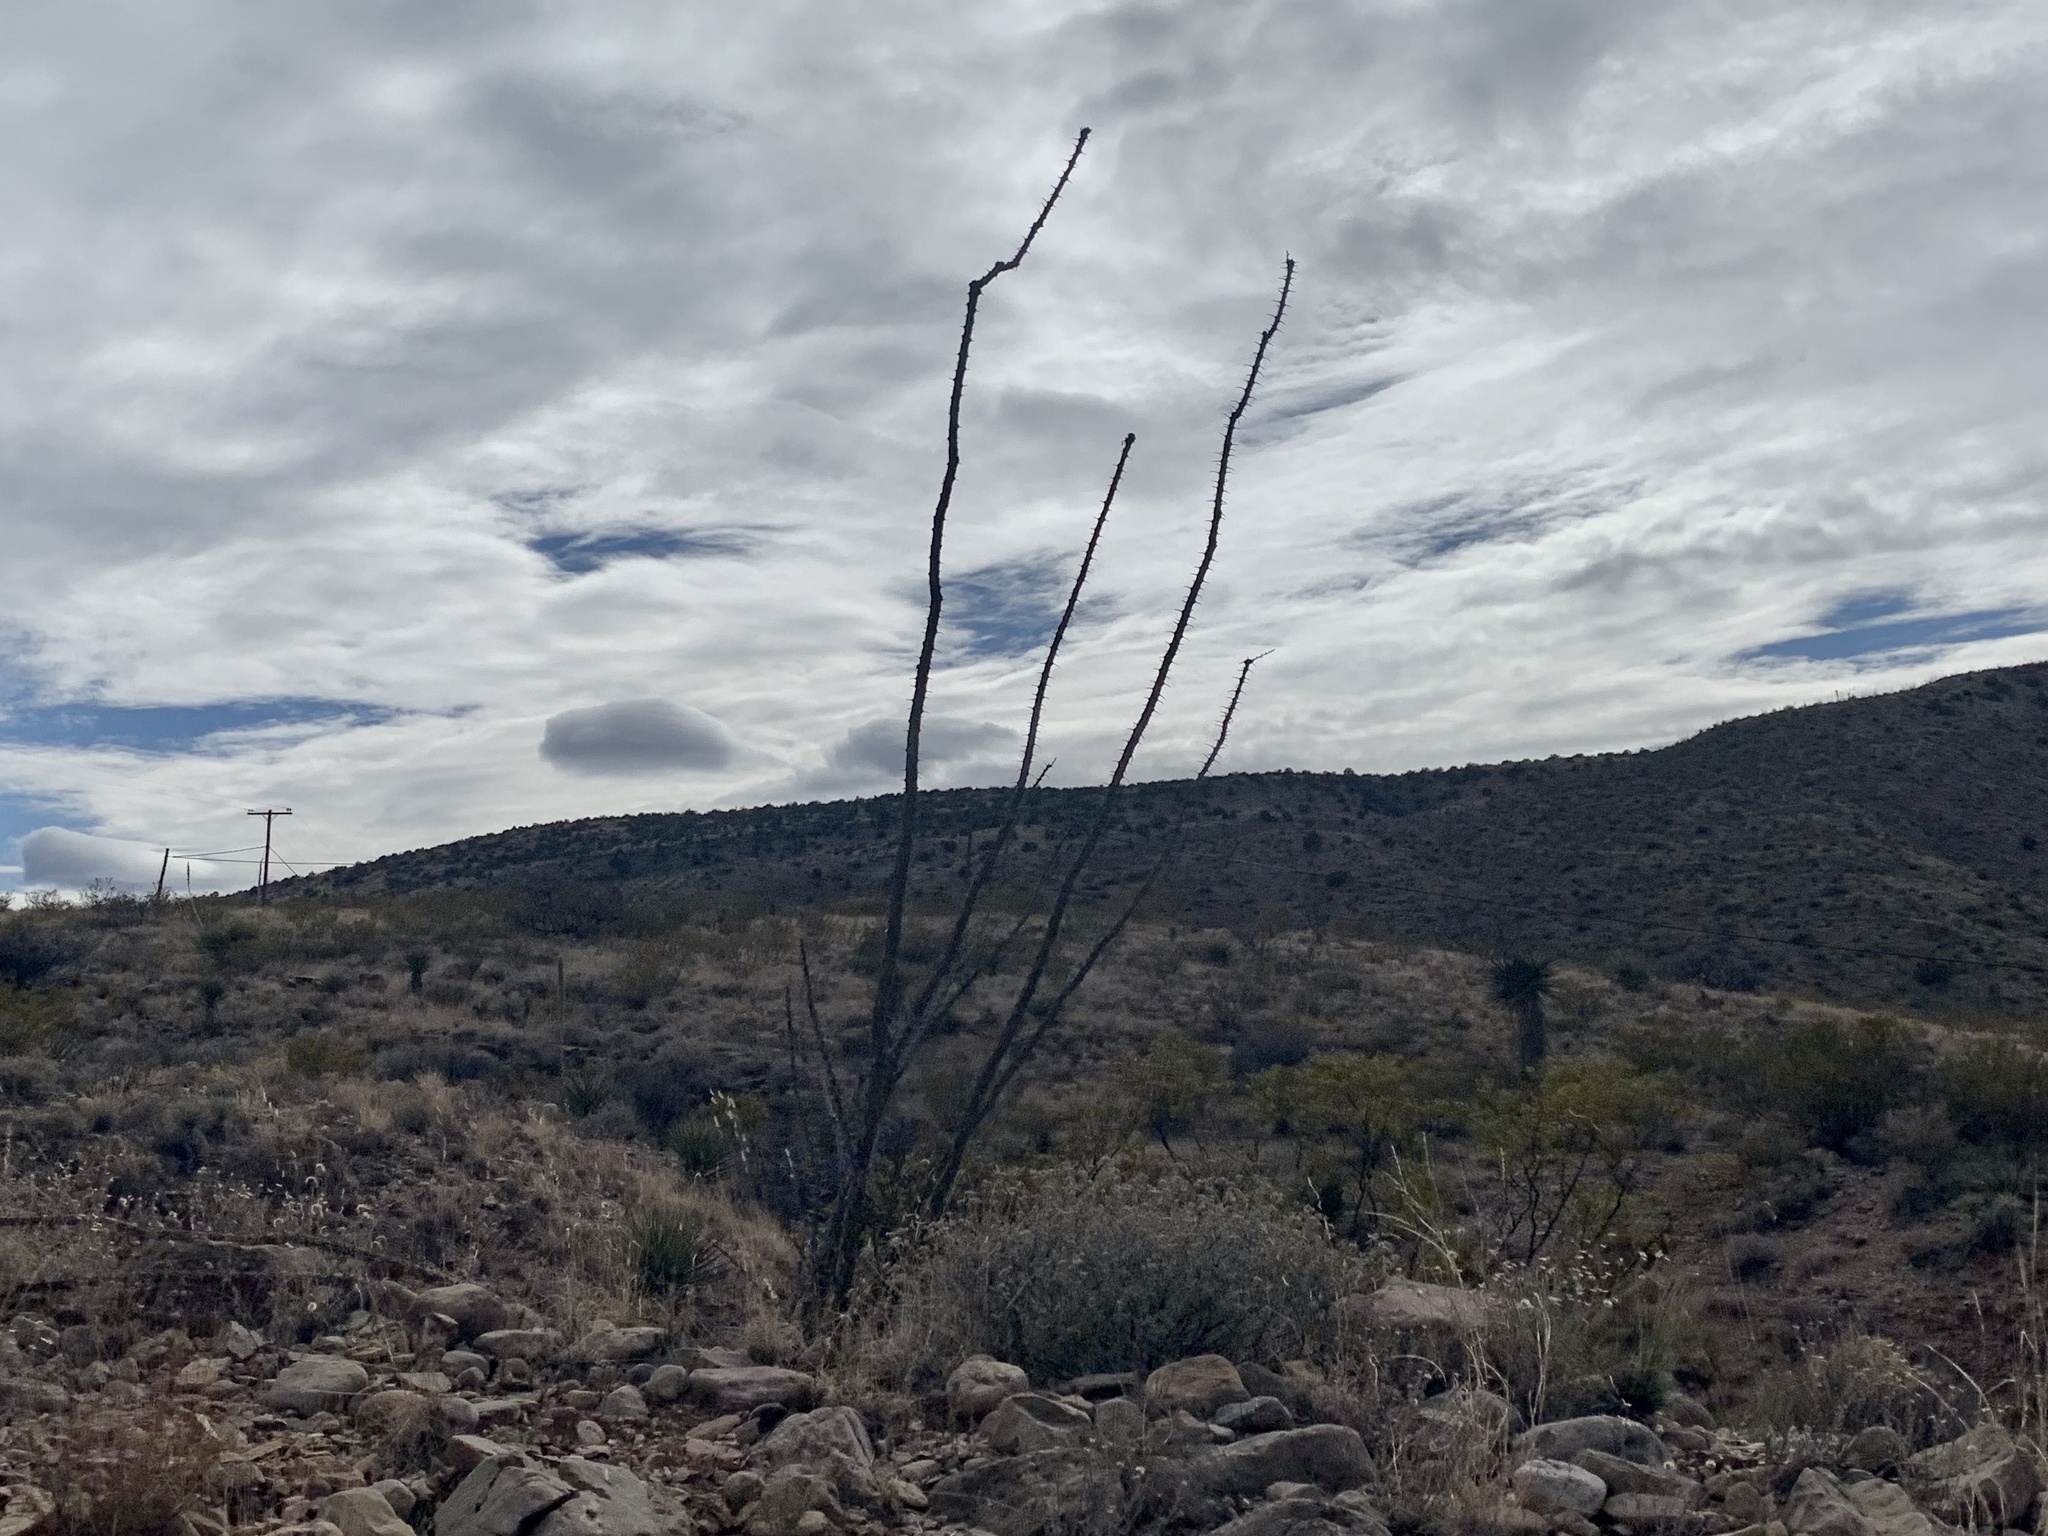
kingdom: Plantae
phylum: Tracheophyta
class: Magnoliopsida
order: Ericales
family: Fouquieriaceae
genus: Fouquieria
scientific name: Fouquieria splendens
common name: Vine-cactus
